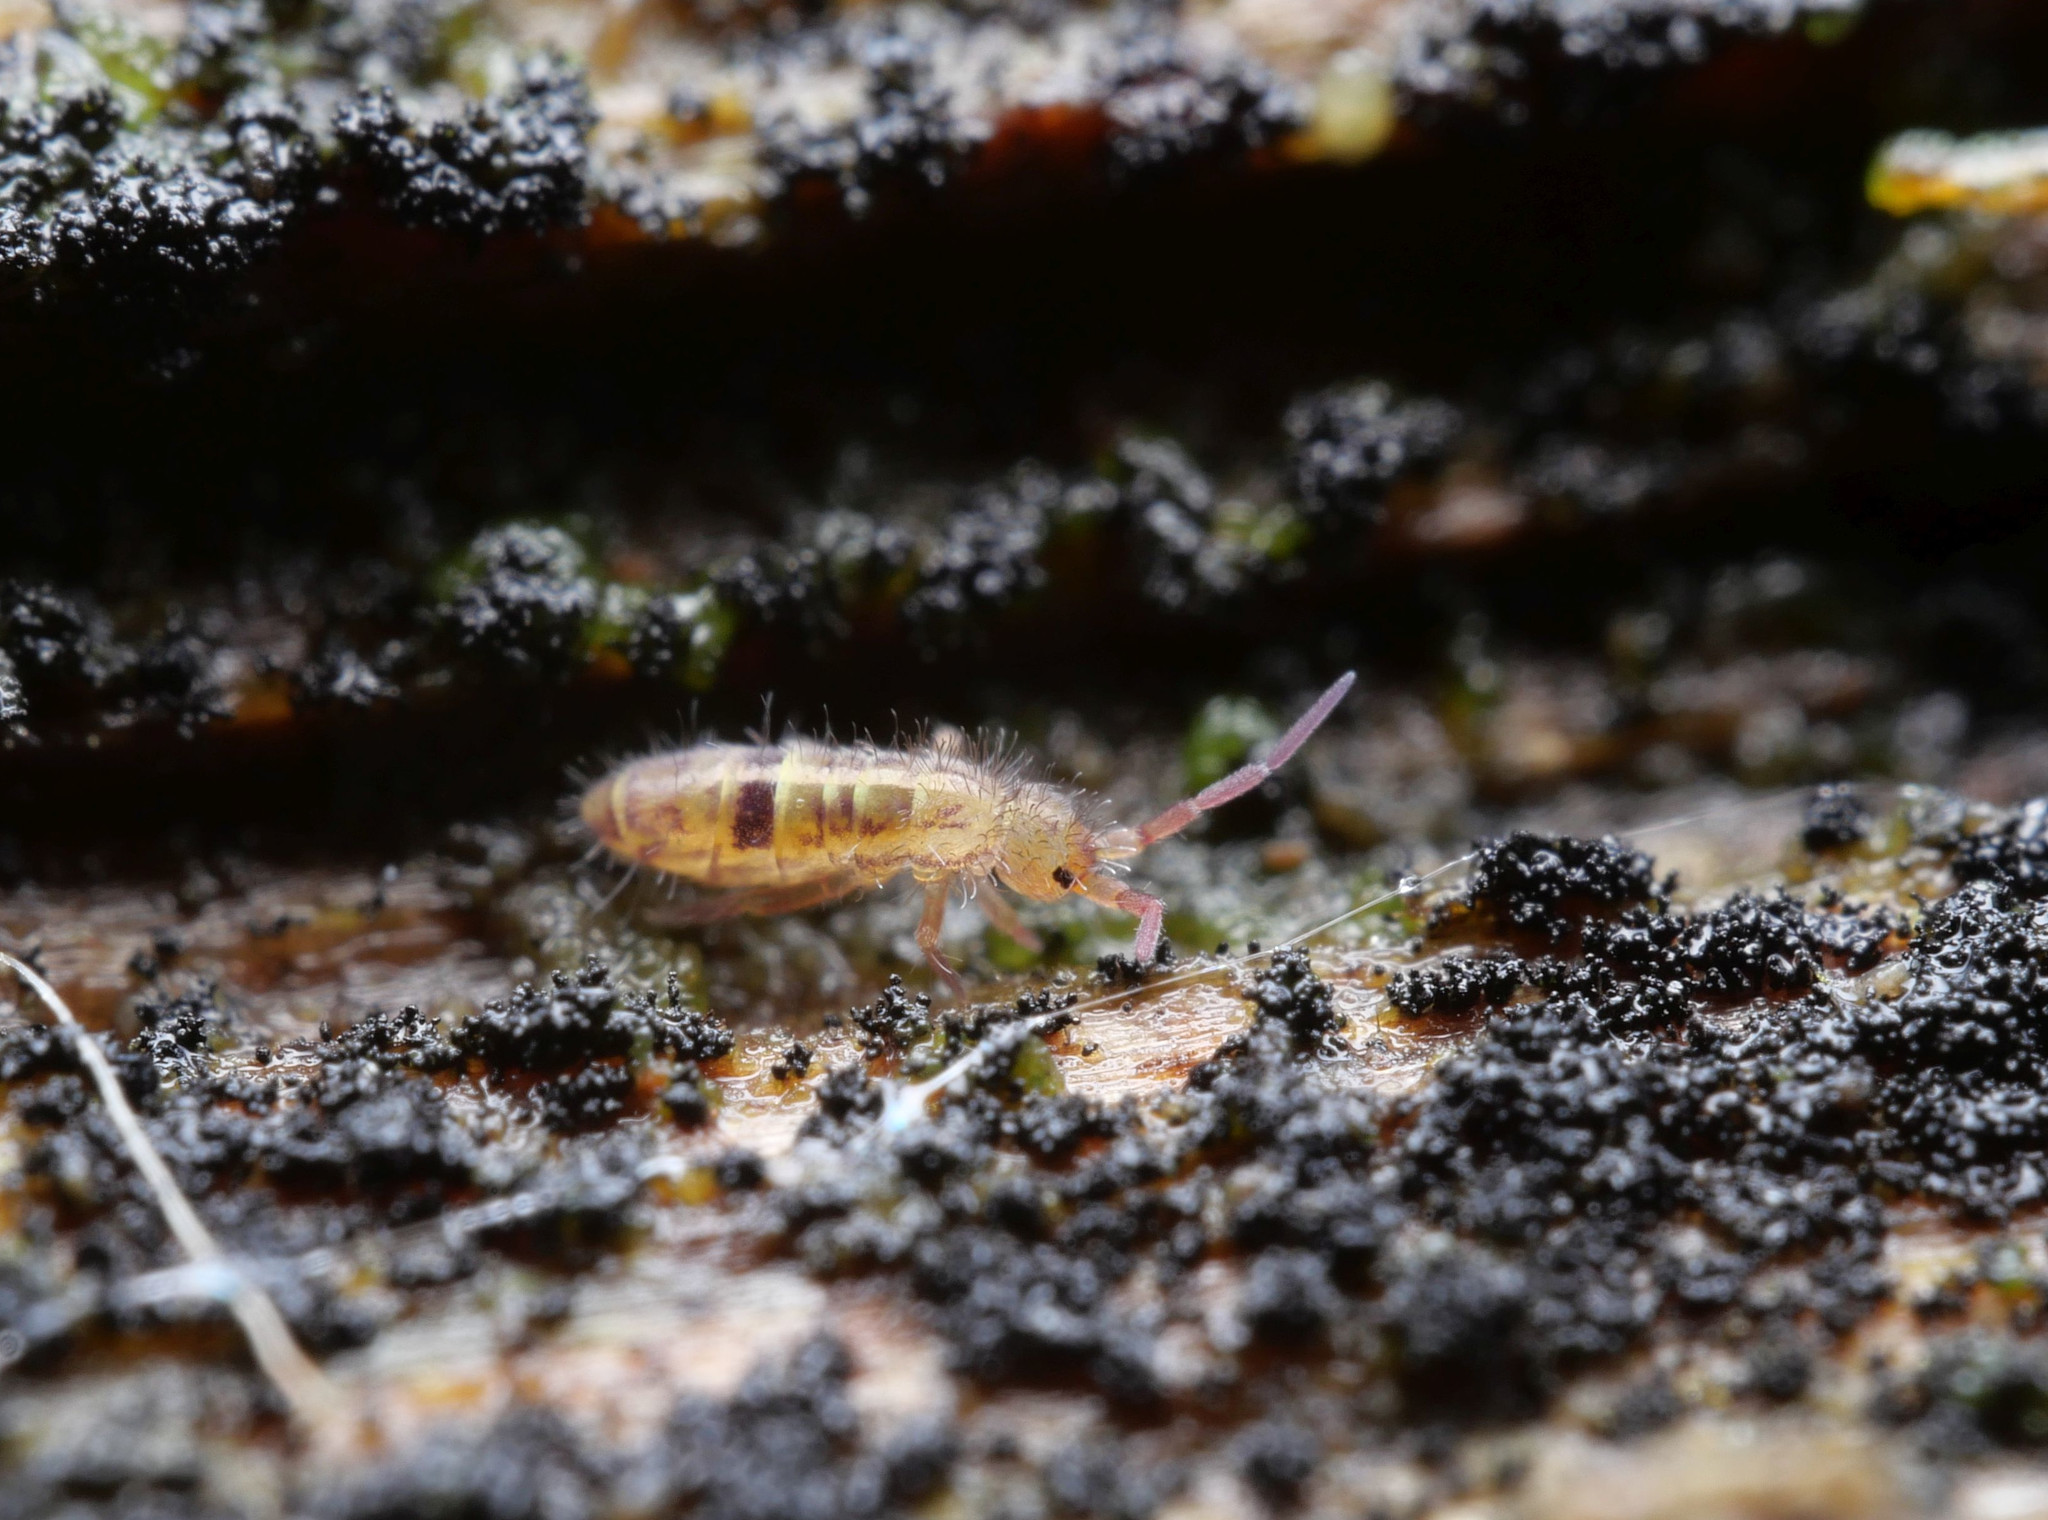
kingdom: Animalia
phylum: Arthropoda
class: Collembola
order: Entomobryomorpha
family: Orchesellidae
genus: Orchesella
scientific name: Orchesella cincta
